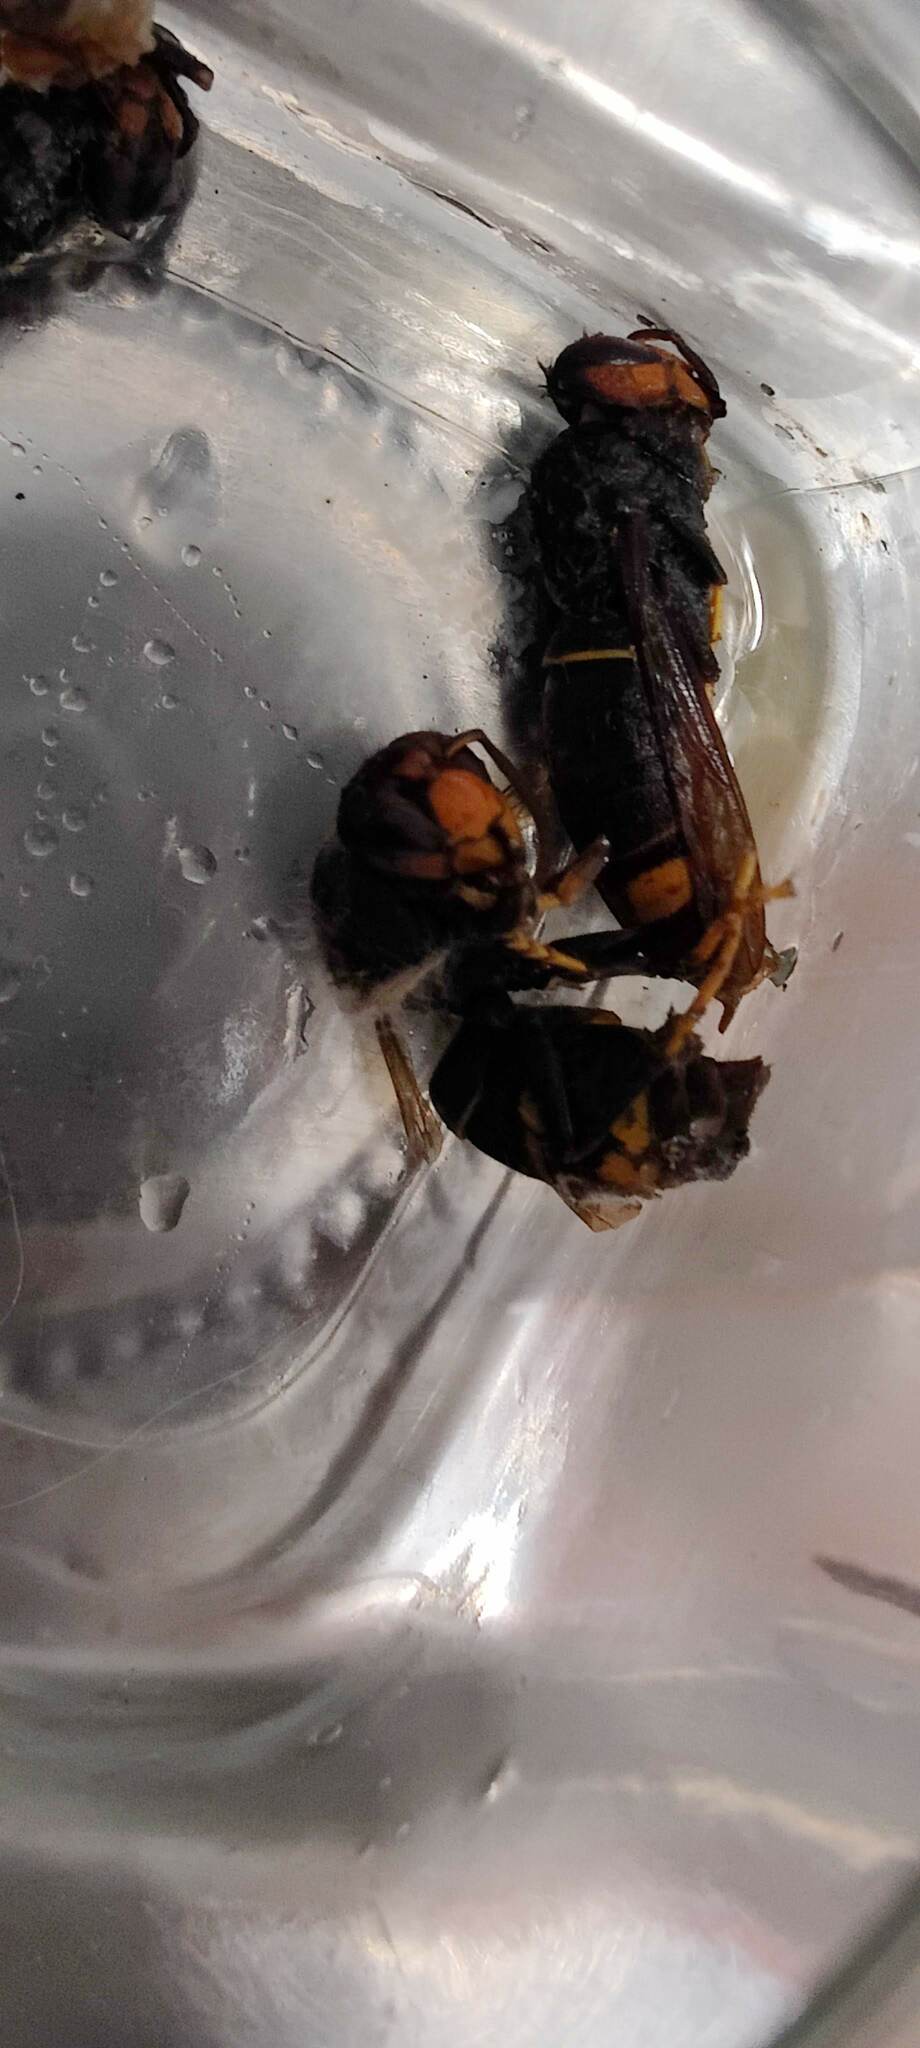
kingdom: Animalia
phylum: Arthropoda
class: Insecta
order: Hymenoptera
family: Vespidae
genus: Vespa
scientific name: Vespa velutina
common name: Asian hornet
